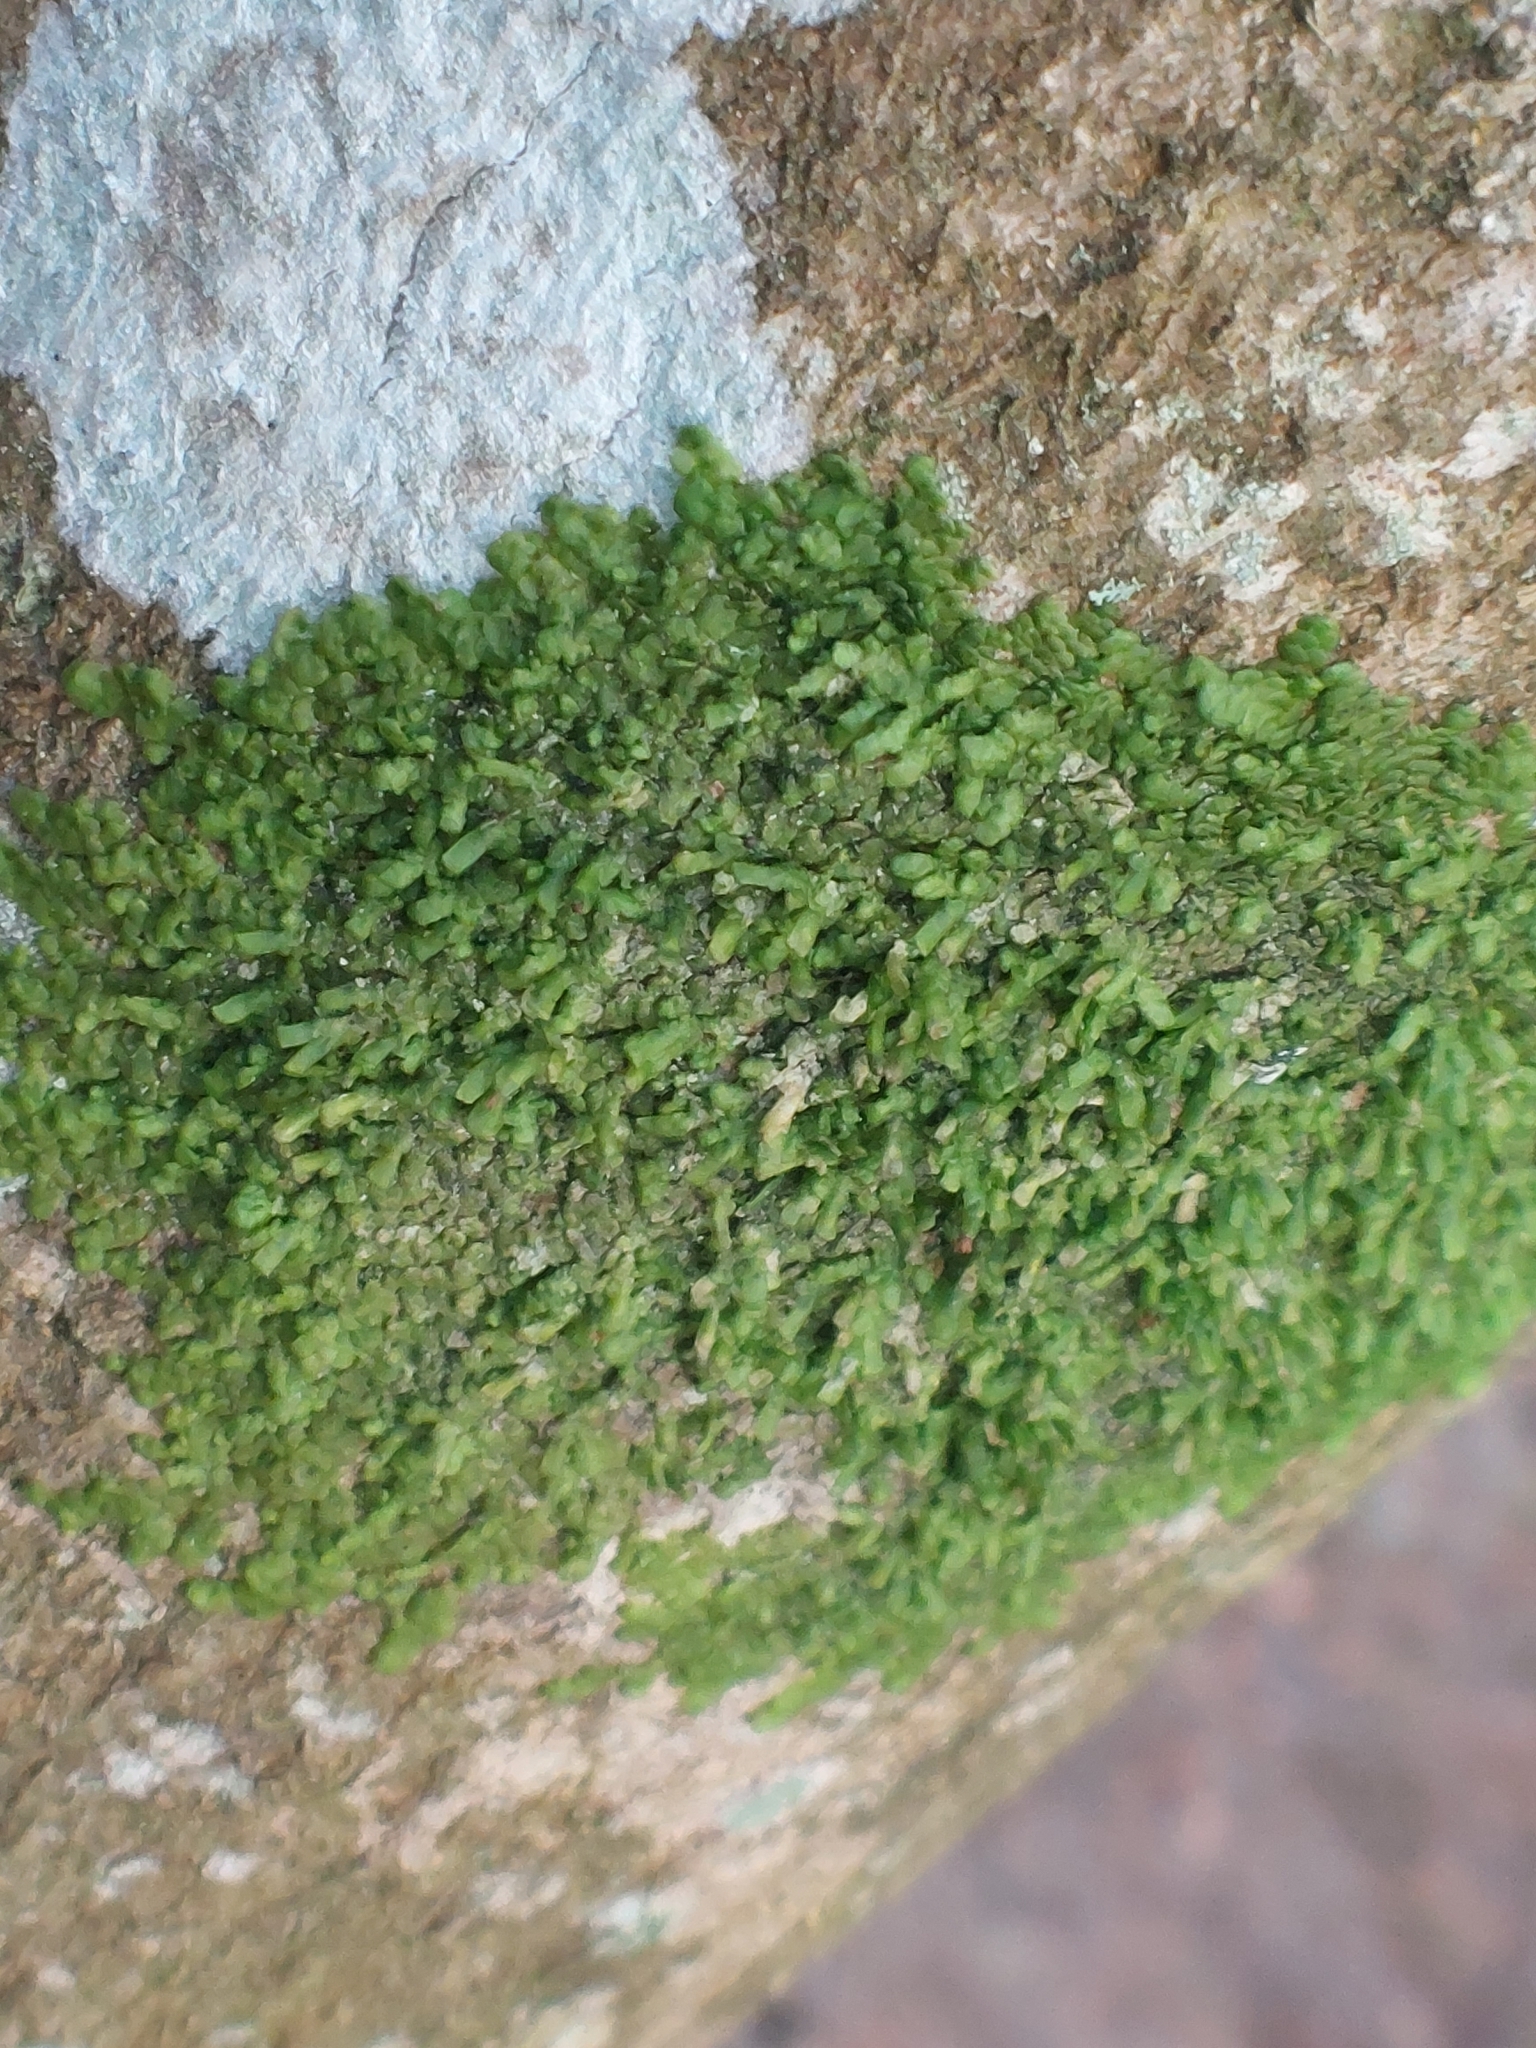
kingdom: Plantae
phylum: Marchantiophyta
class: Jungermanniopsida
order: Porellales
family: Radulaceae
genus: Radula
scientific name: Radula complanata
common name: Flat-leaved scalewort
